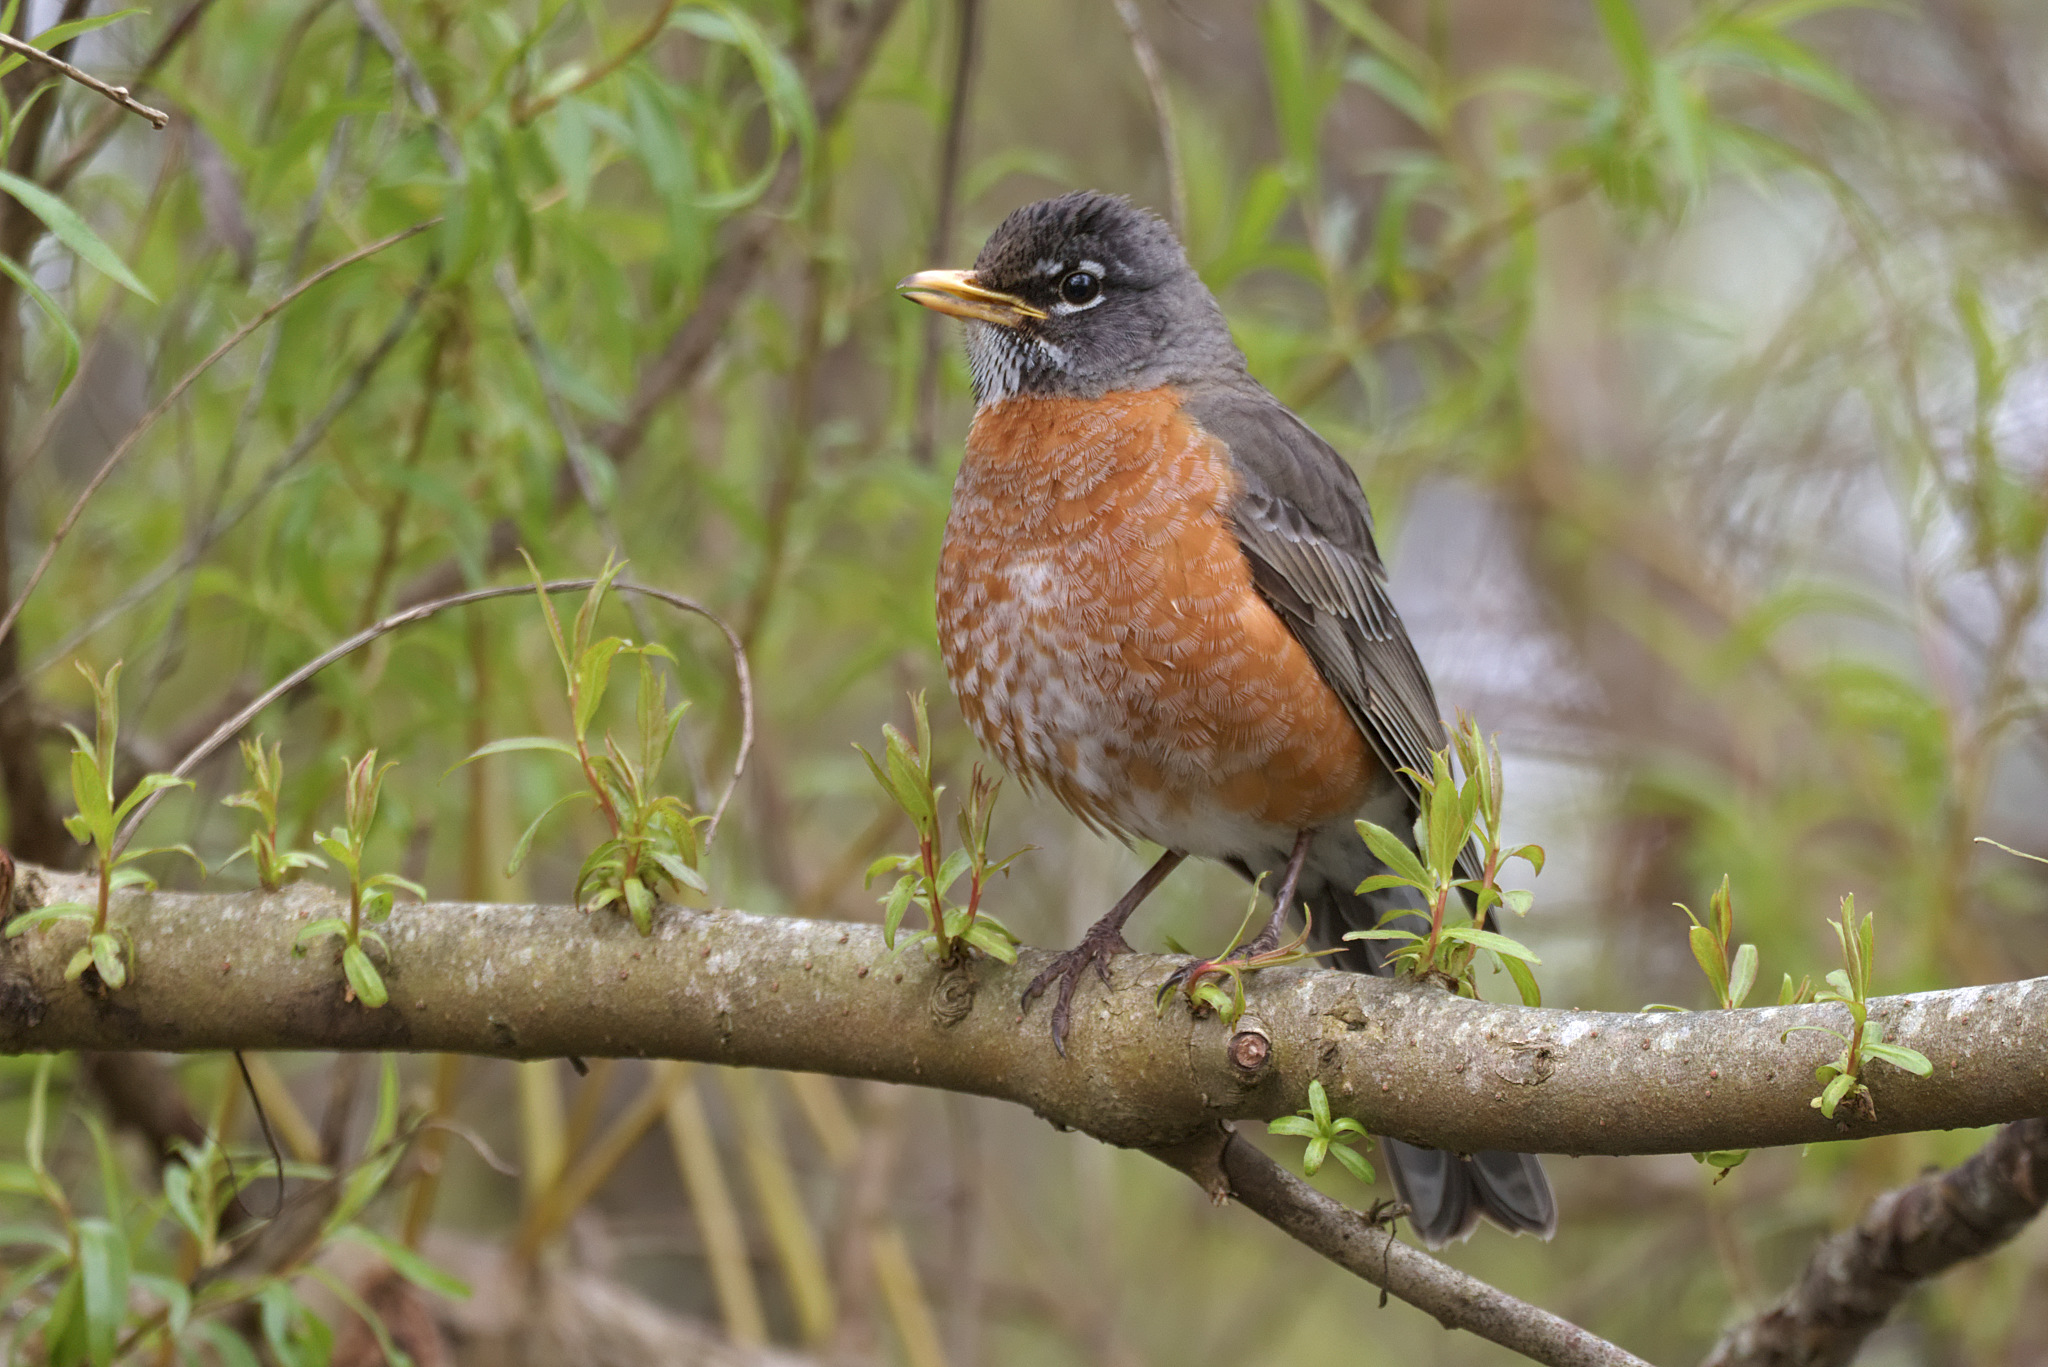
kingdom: Animalia
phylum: Chordata
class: Aves
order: Passeriformes
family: Turdidae
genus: Turdus
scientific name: Turdus migratorius
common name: American robin
